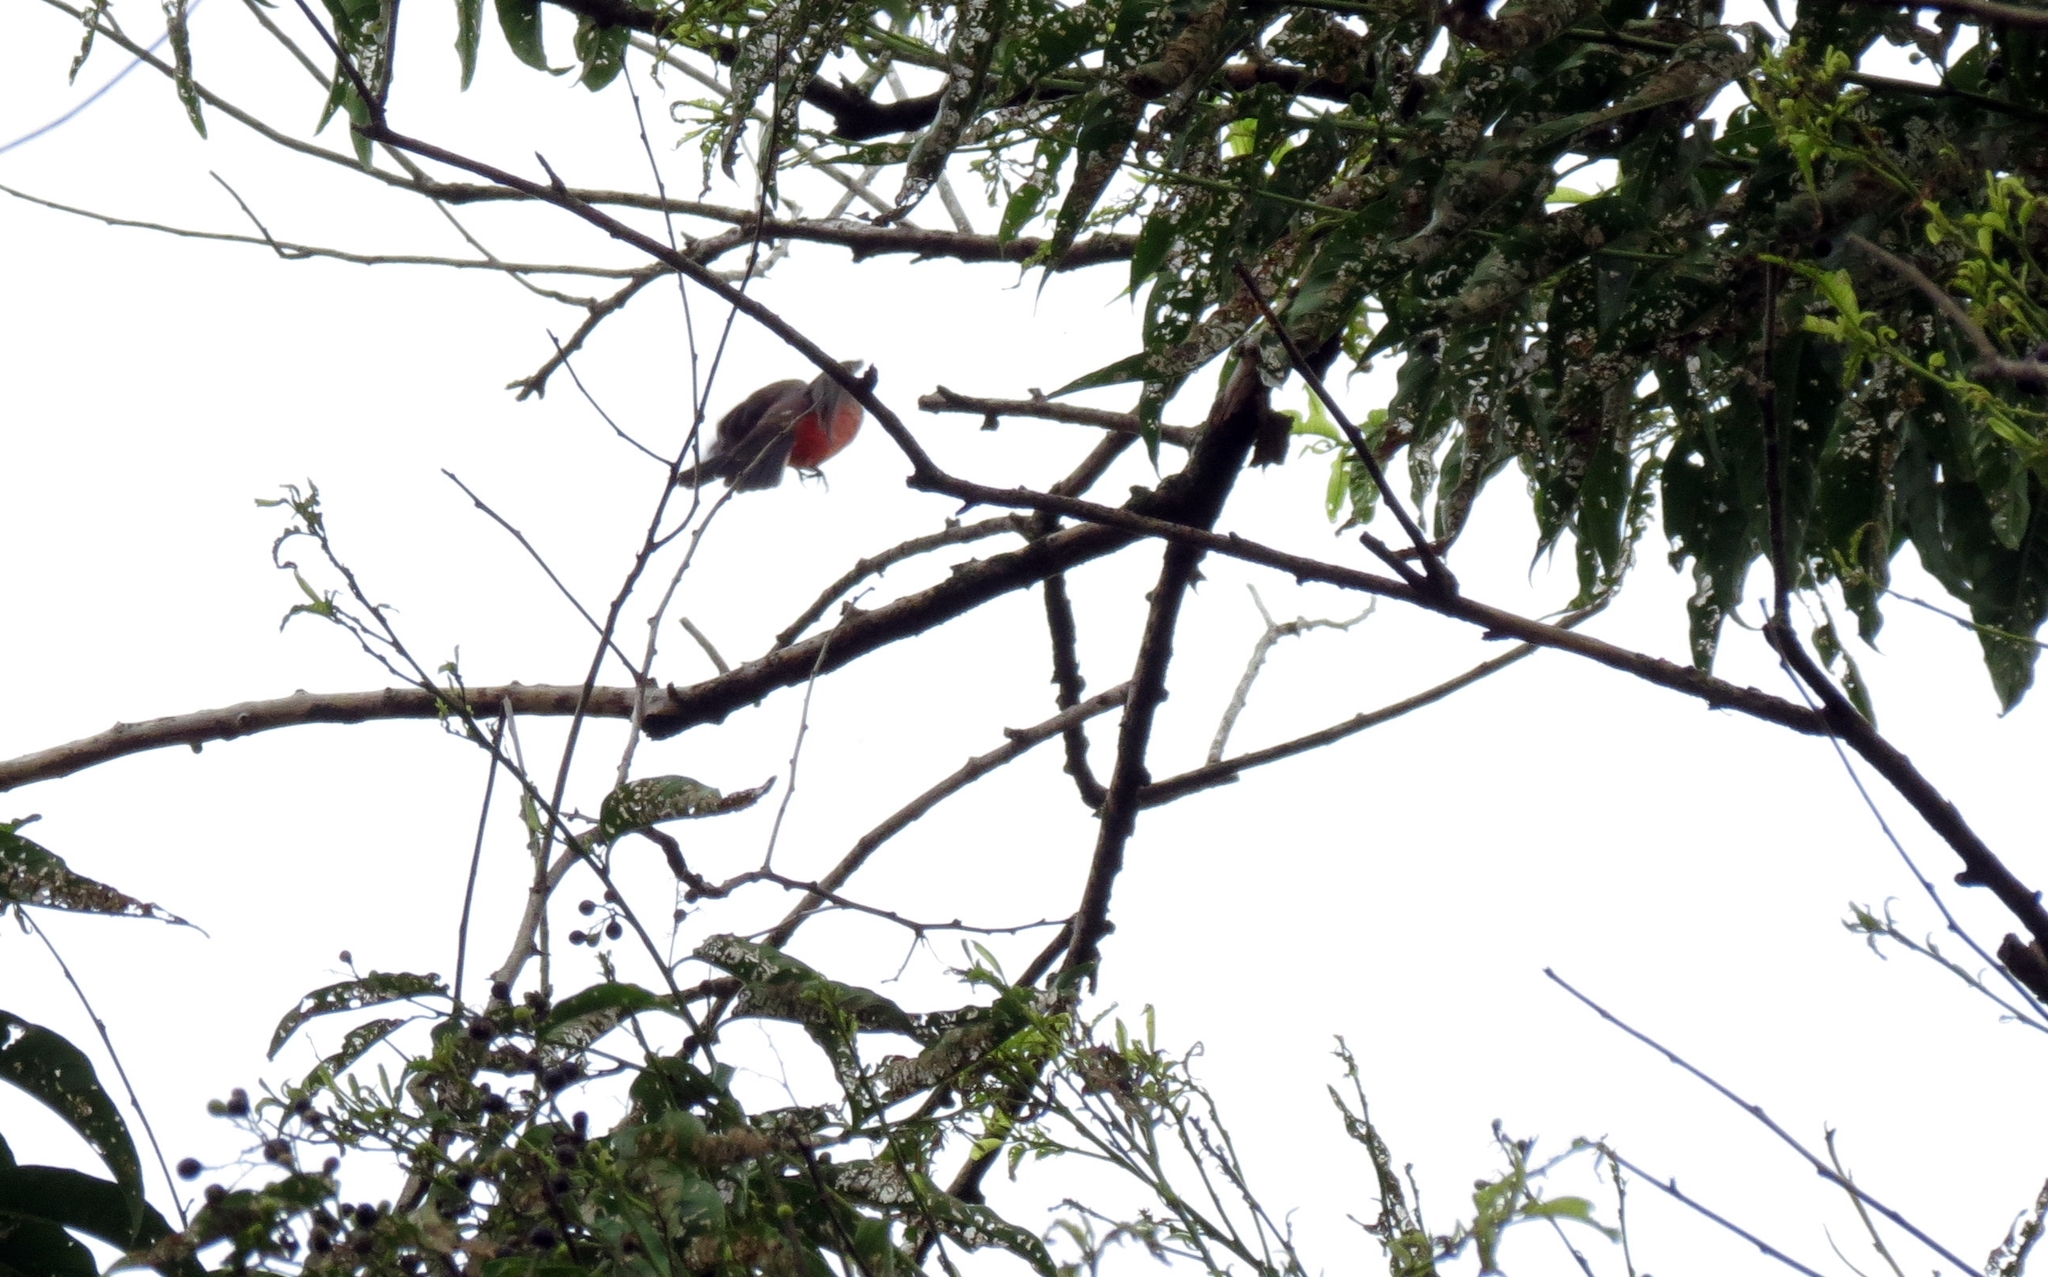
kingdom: Animalia
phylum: Chordata
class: Aves
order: Passeriformes
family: Tyrannidae
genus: Pyrocephalus
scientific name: Pyrocephalus rubinus
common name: Vermilion flycatcher
